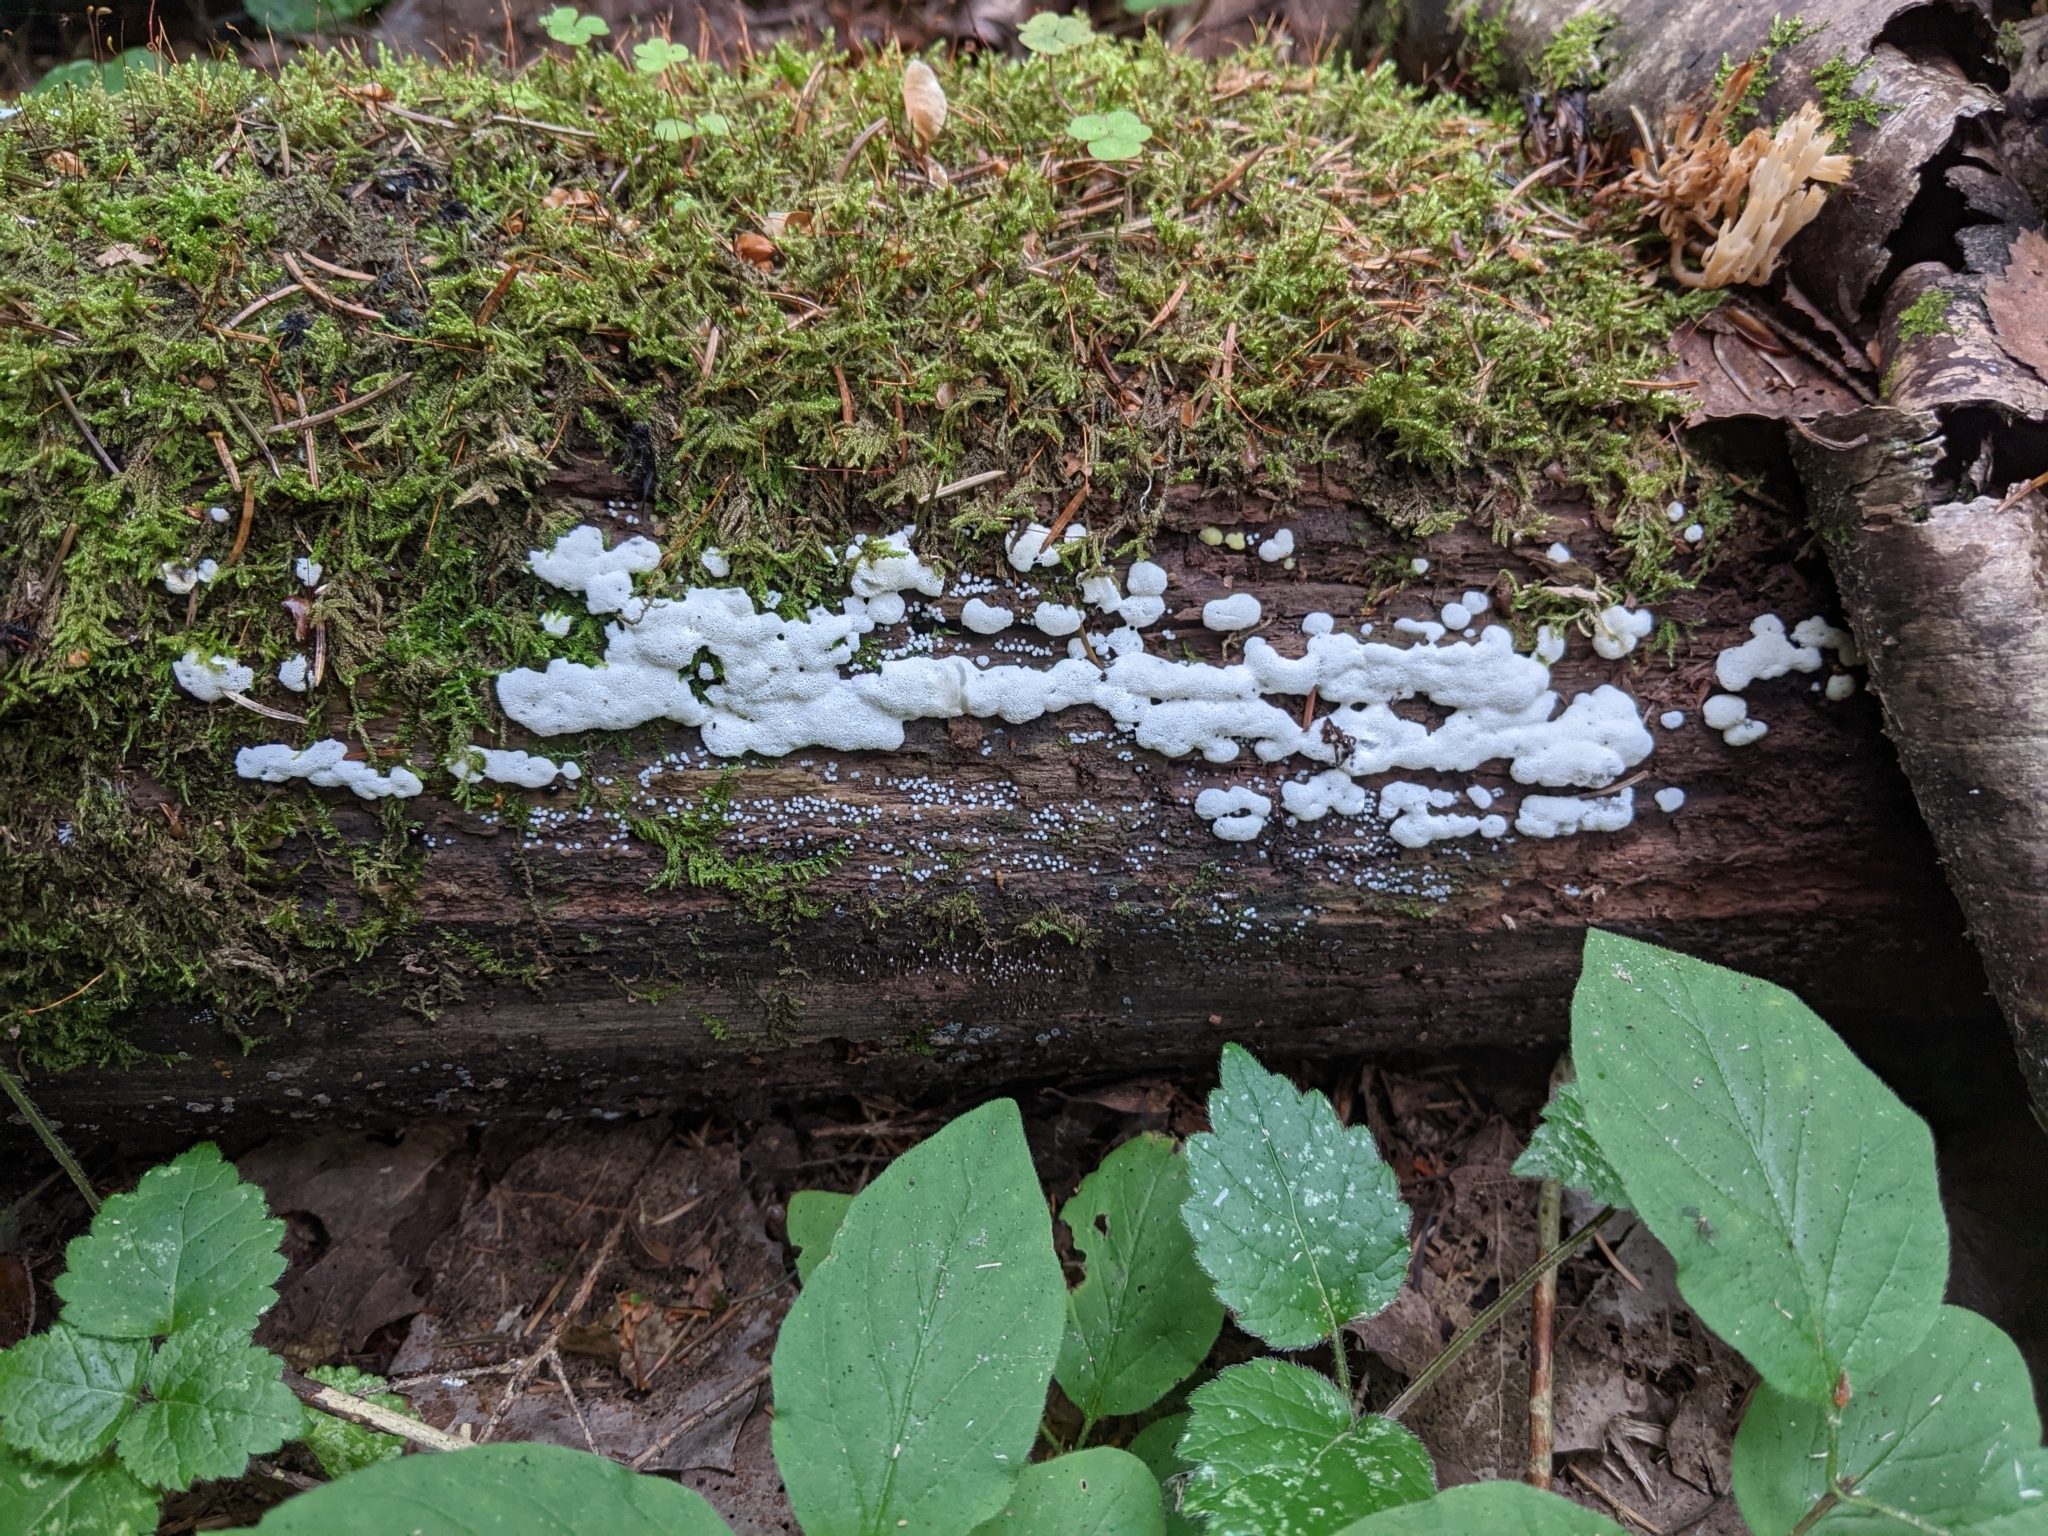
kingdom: Protozoa
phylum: Mycetozoa
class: Protosteliomycetes
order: Ceratiomyxales
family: Ceratiomyxaceae
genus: Ceratiomyxa
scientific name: Ceratiomyxa fruticulosa
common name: Honeycomb coral slime mold
